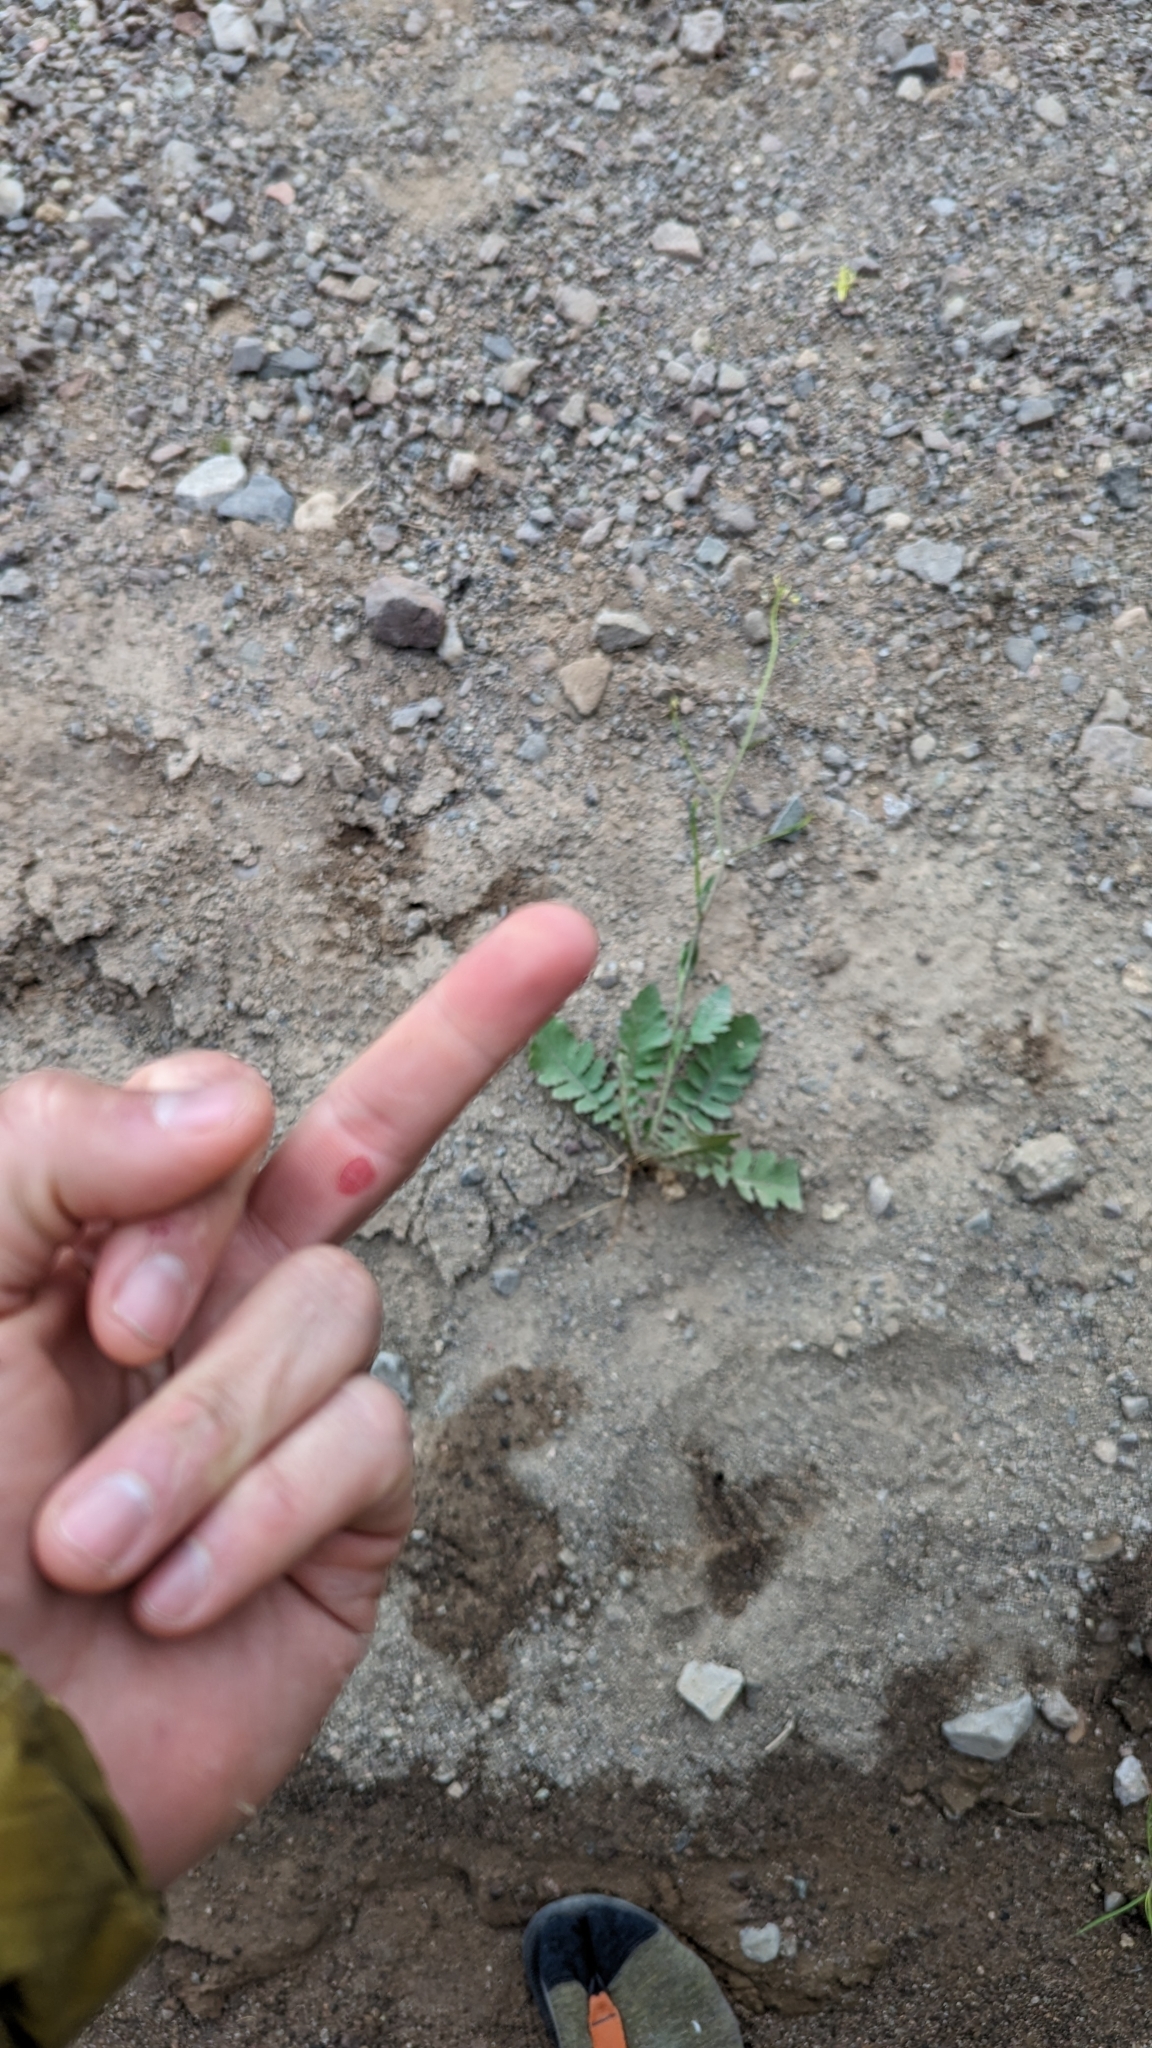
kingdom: Plantae
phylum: Tracheophyta
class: Magnoliopsida
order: Brassicales
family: Brassicaceae
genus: Brassica
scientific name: Brassica tournefortii
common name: Pale cabbage
